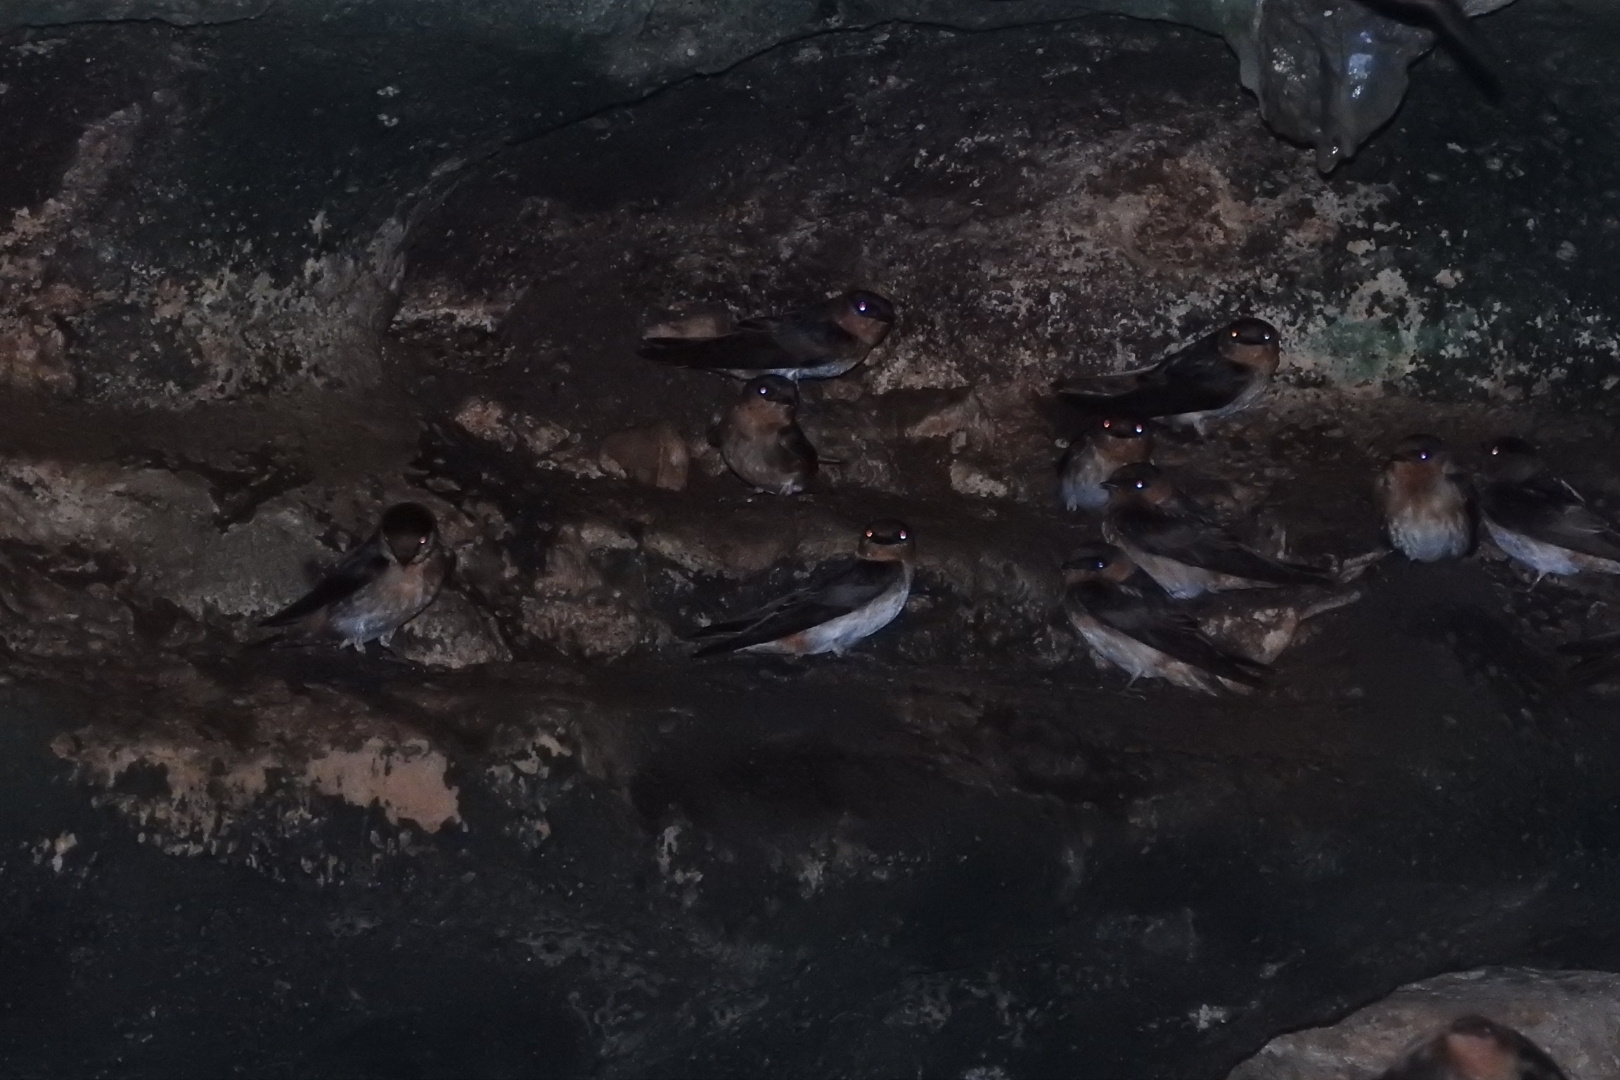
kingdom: Animalia
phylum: Chordata
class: Aves
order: Passeriformes
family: Hirundinidae
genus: Petrochelidon
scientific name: Petrochelidon fulva
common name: Cave swallow
